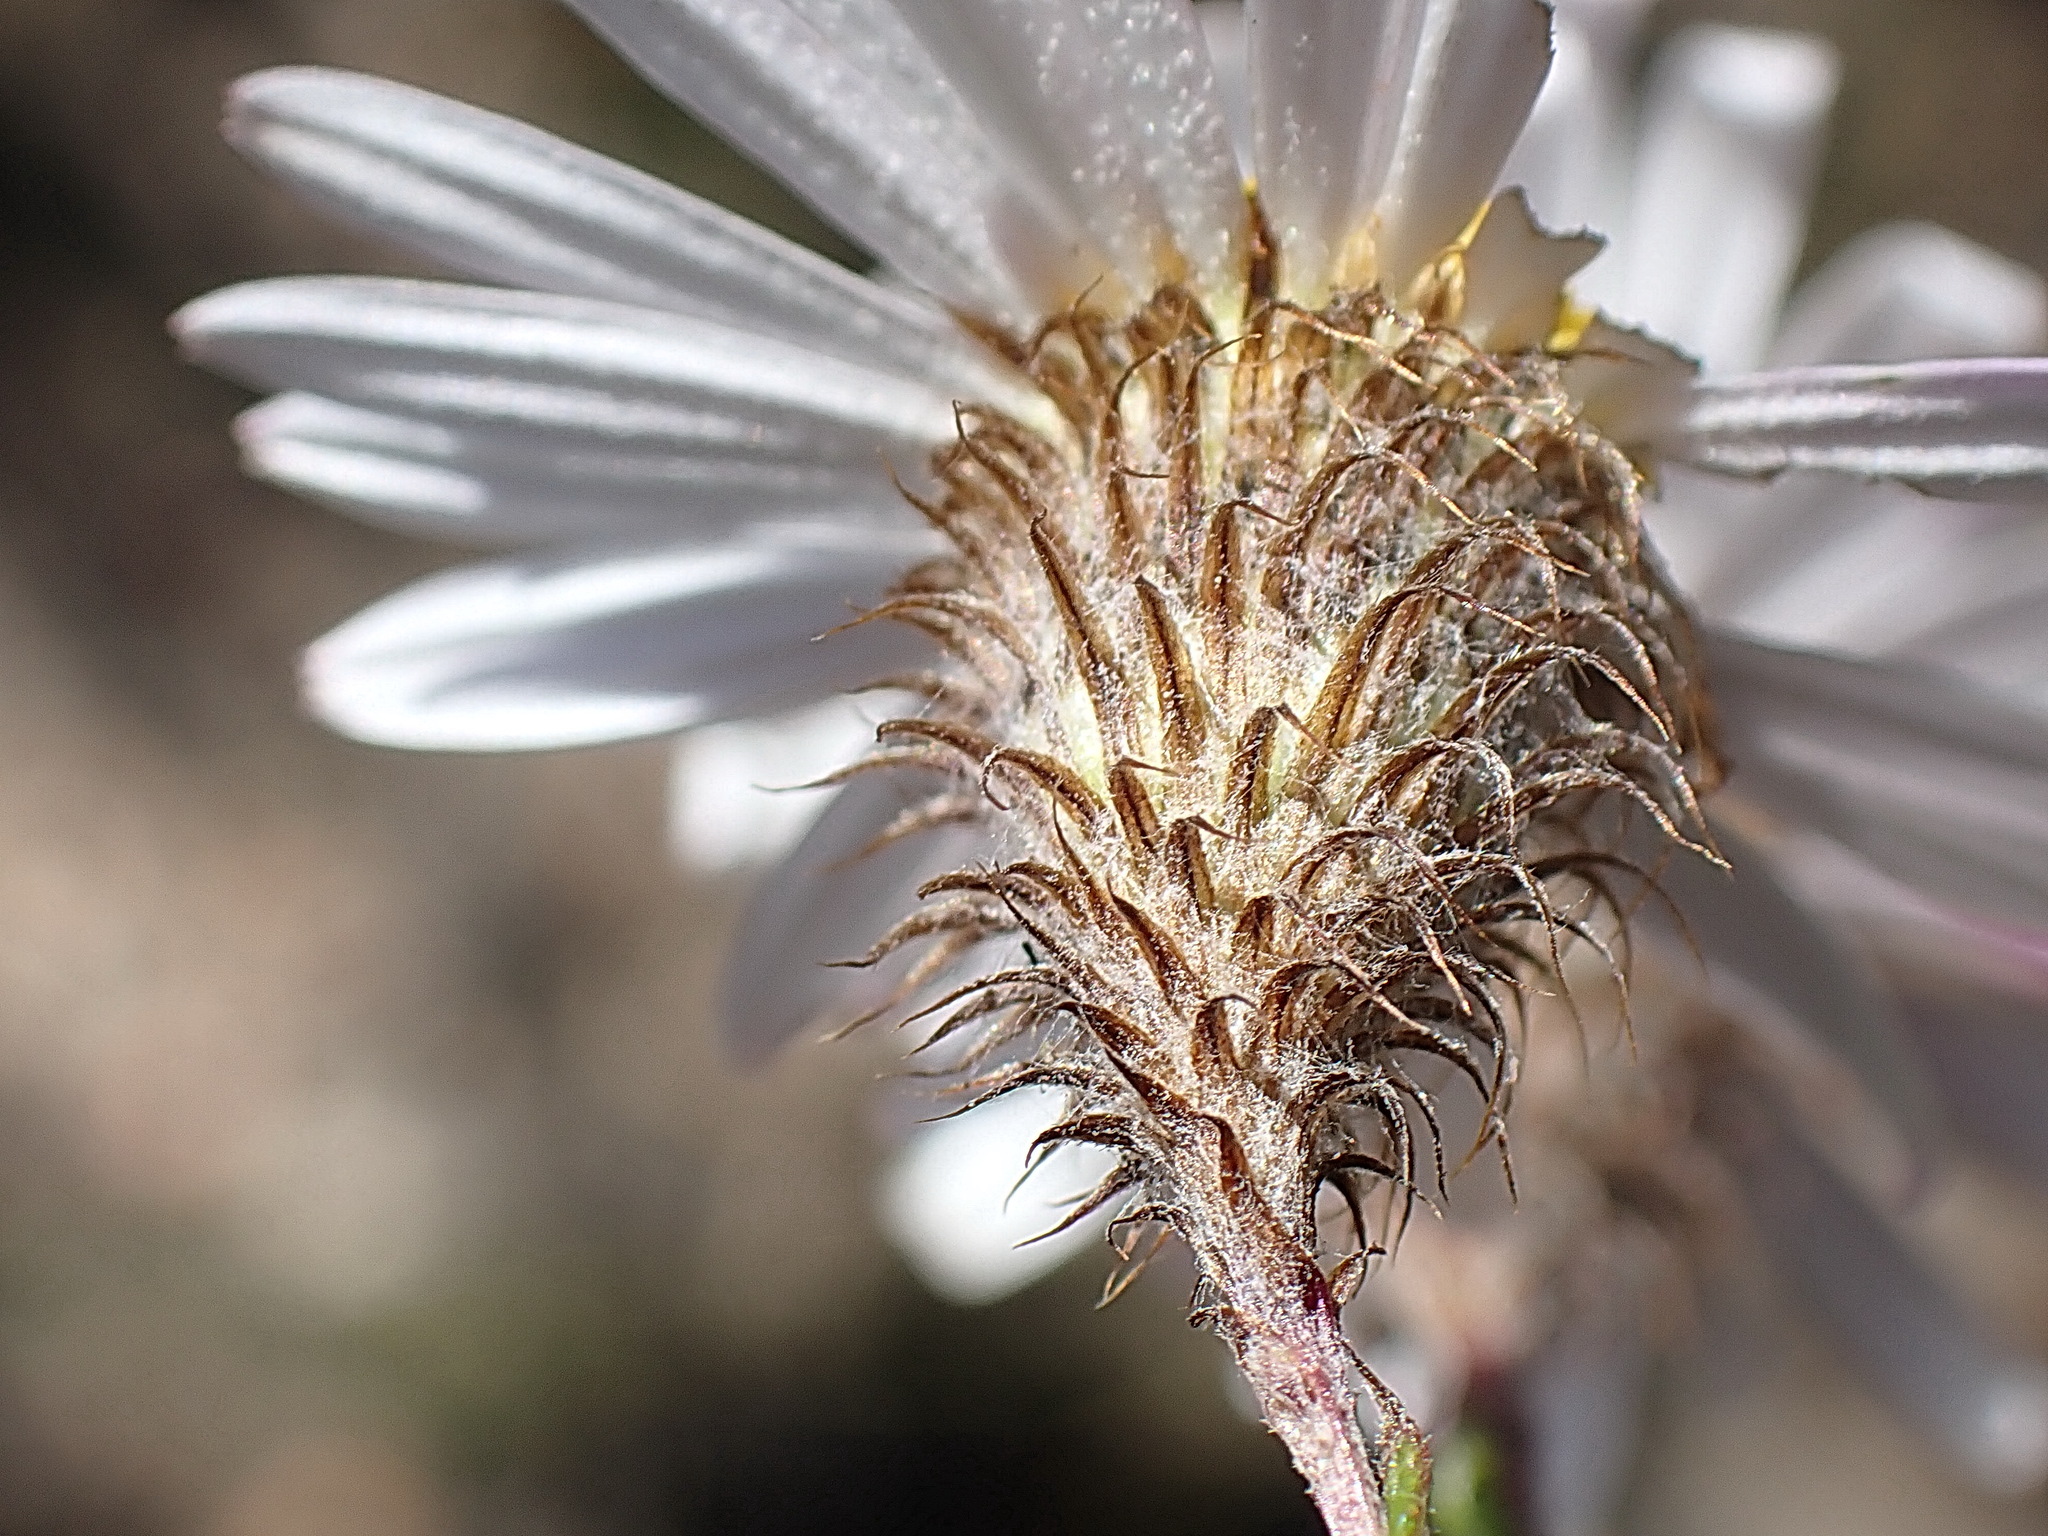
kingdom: Plantae
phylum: Tracheophyta
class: Magnoliopsida
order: Asterales
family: Asteraceae
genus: Athrixia
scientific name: Athrixia heterophylla
